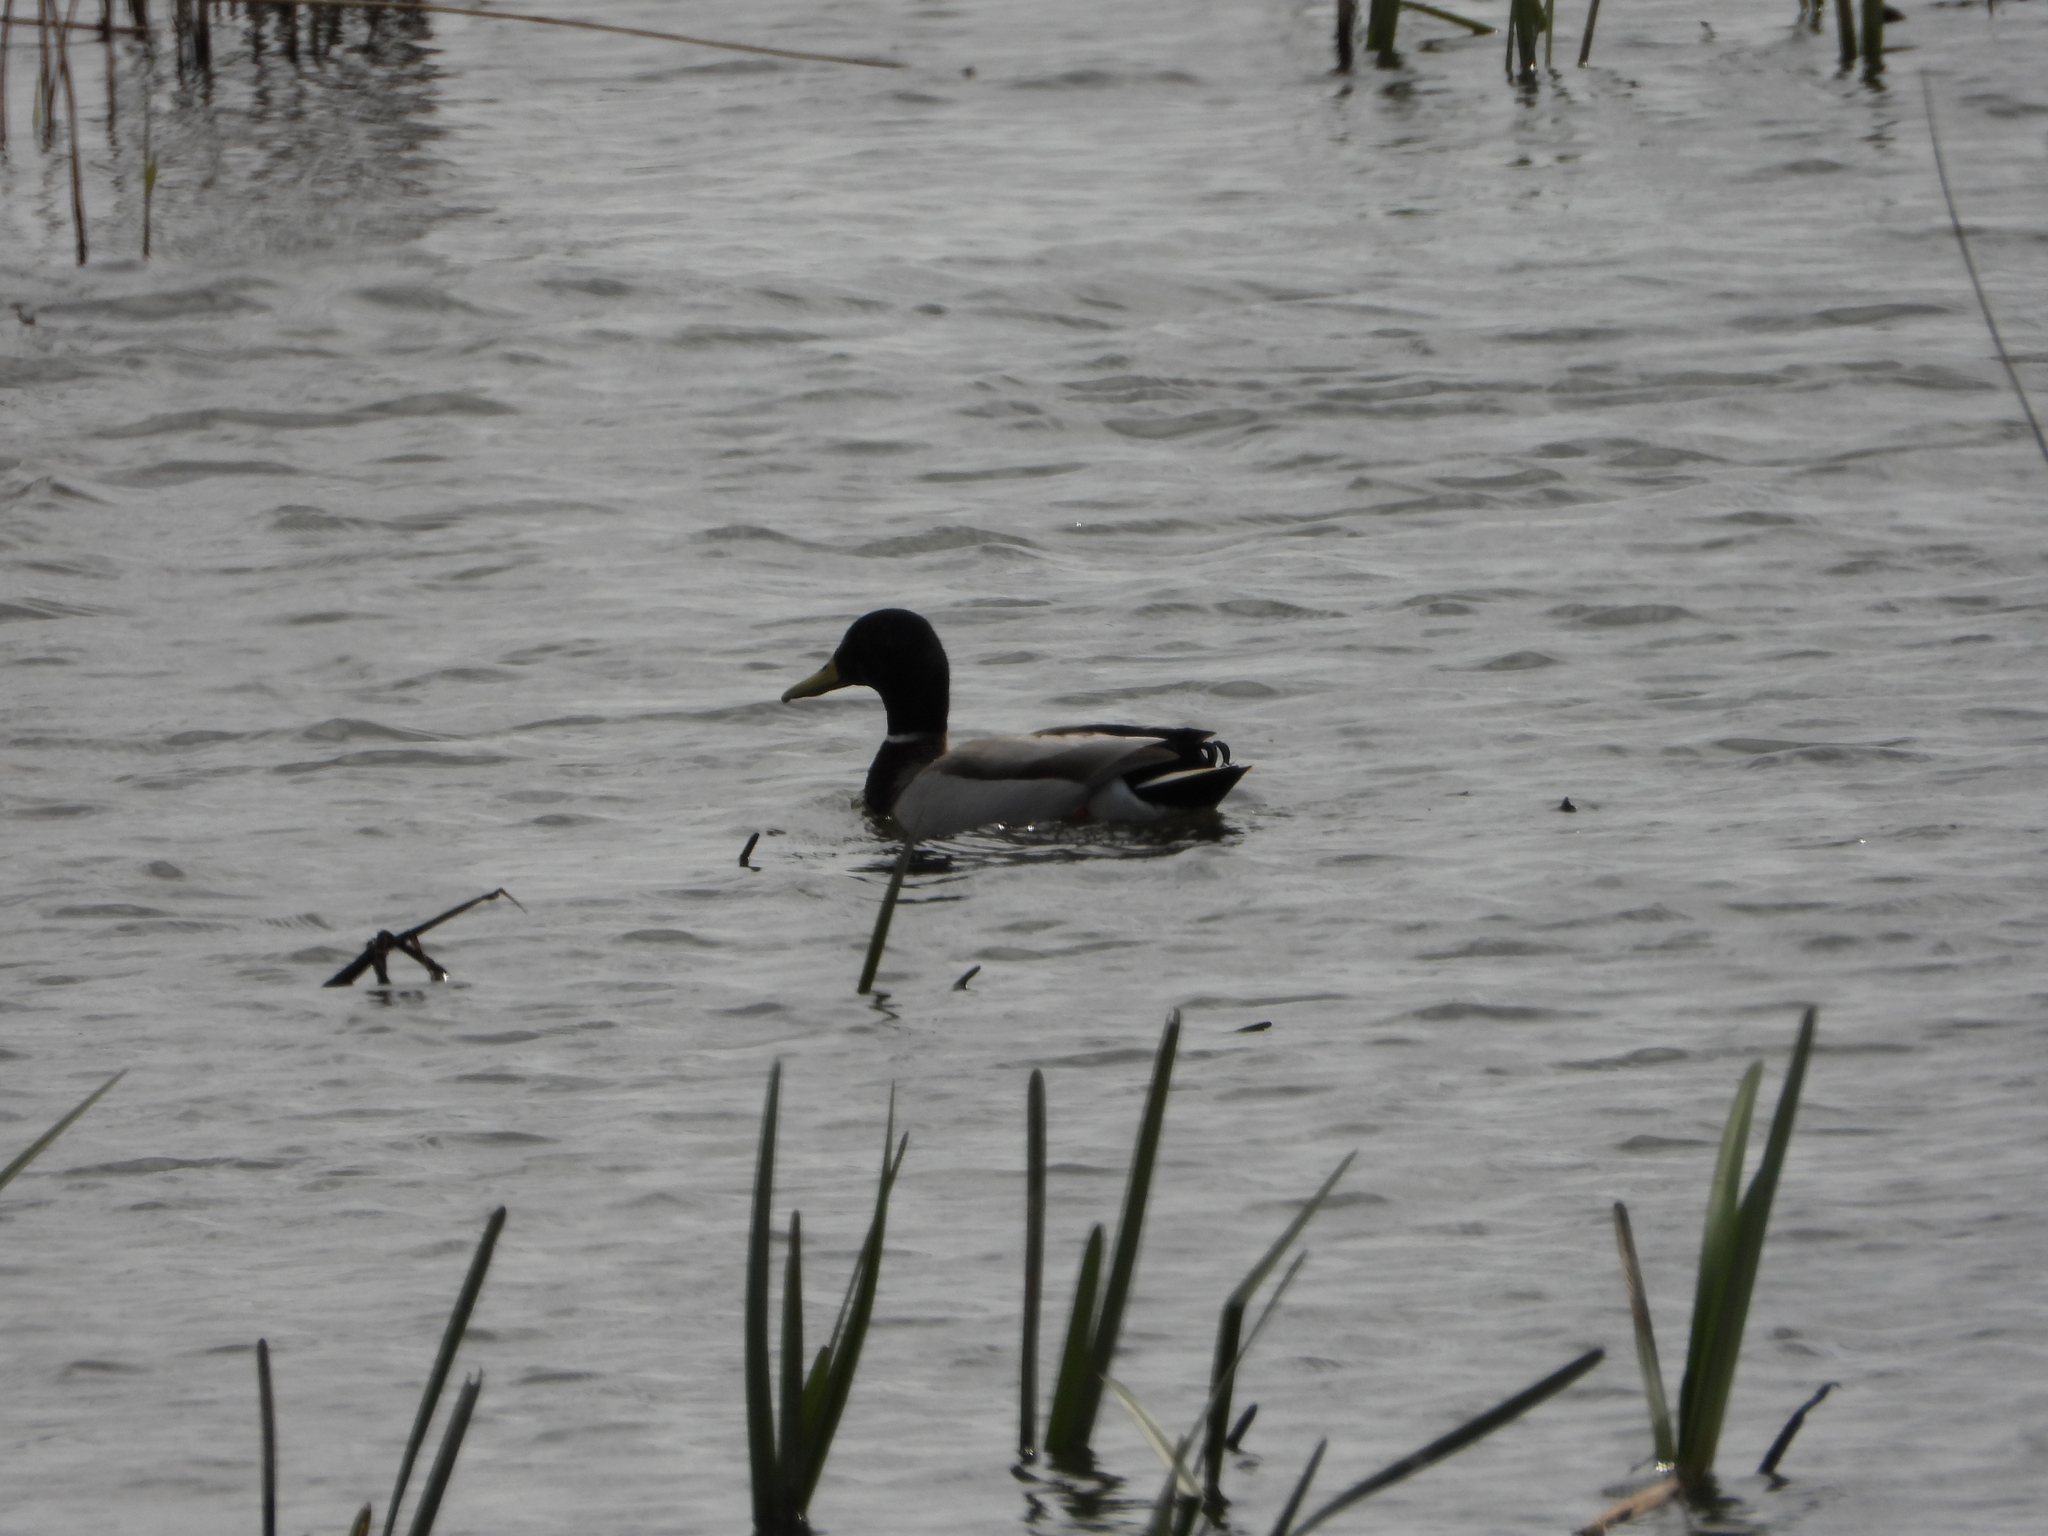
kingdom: Animalia
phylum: Chordata
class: Aves
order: Anseriformes
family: Anatidae
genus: Anas
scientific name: Anas platyrhynchos
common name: Mallard
